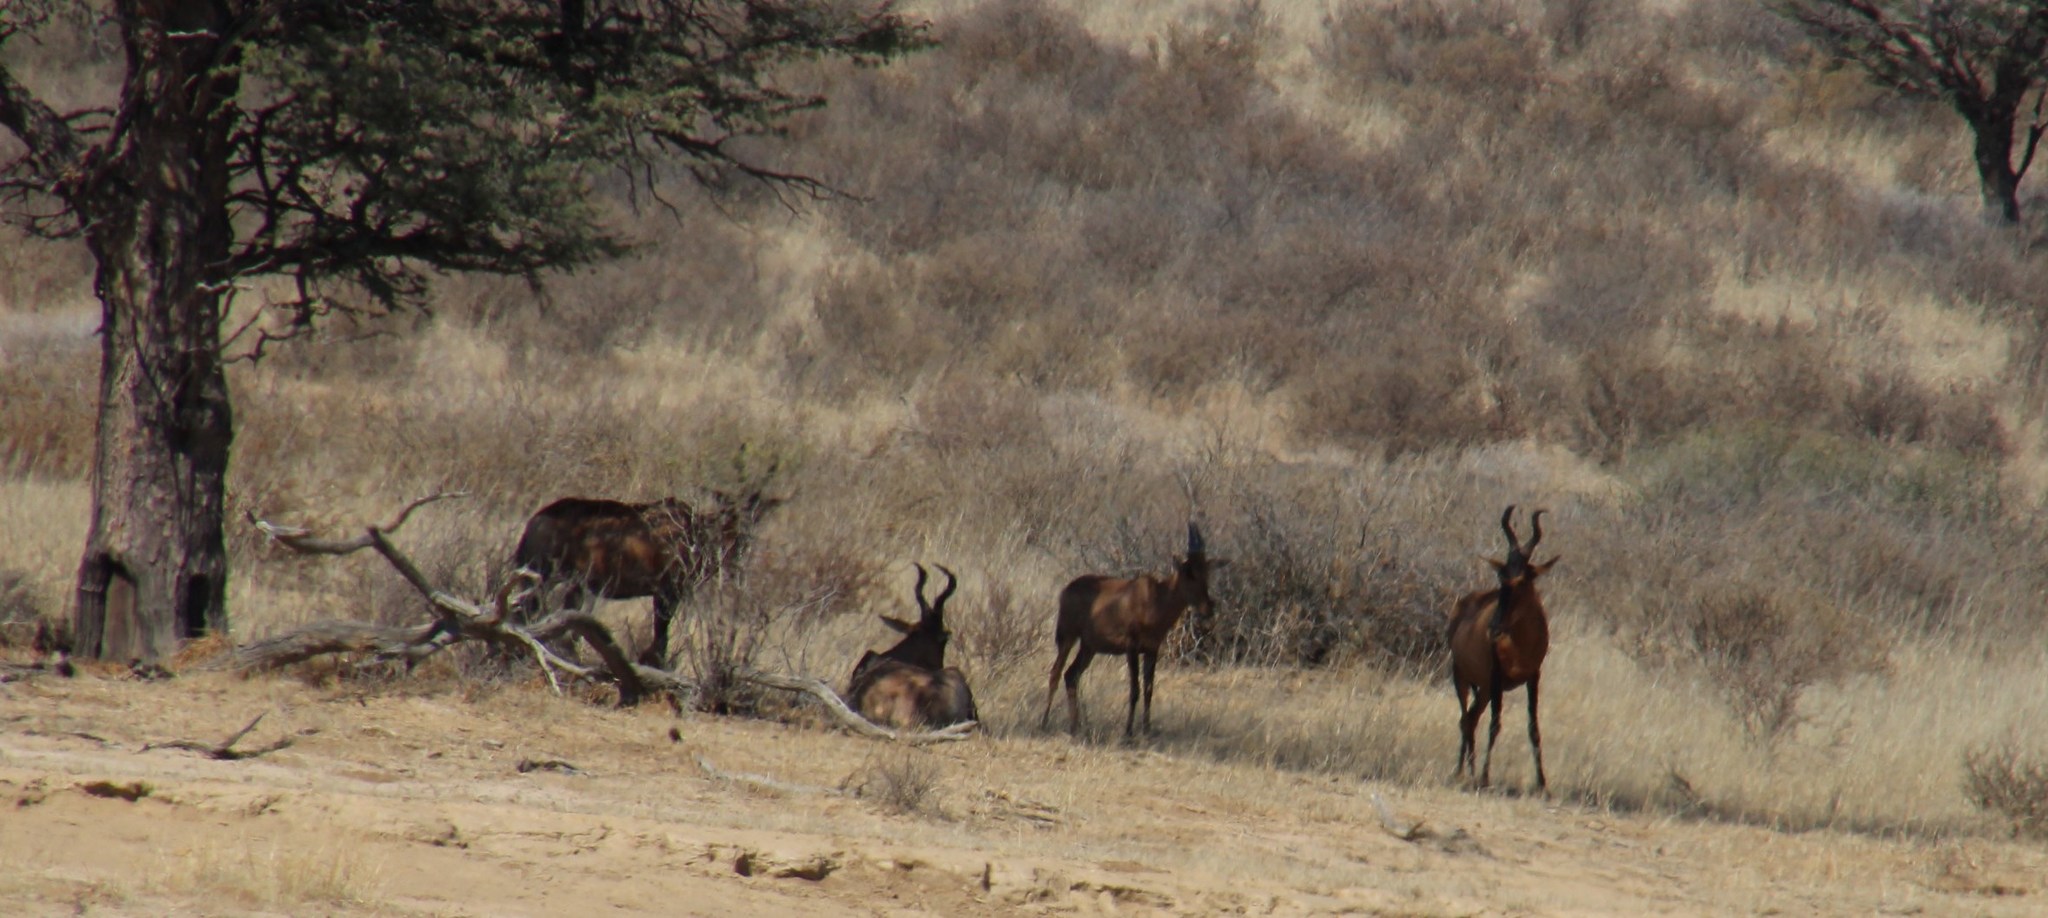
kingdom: Animalia
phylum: Chordata
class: Mammalia
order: Artiodactyla
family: Bovidae
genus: Alcelaphus
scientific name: Alcelaphus caama
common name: Red hartebeest
